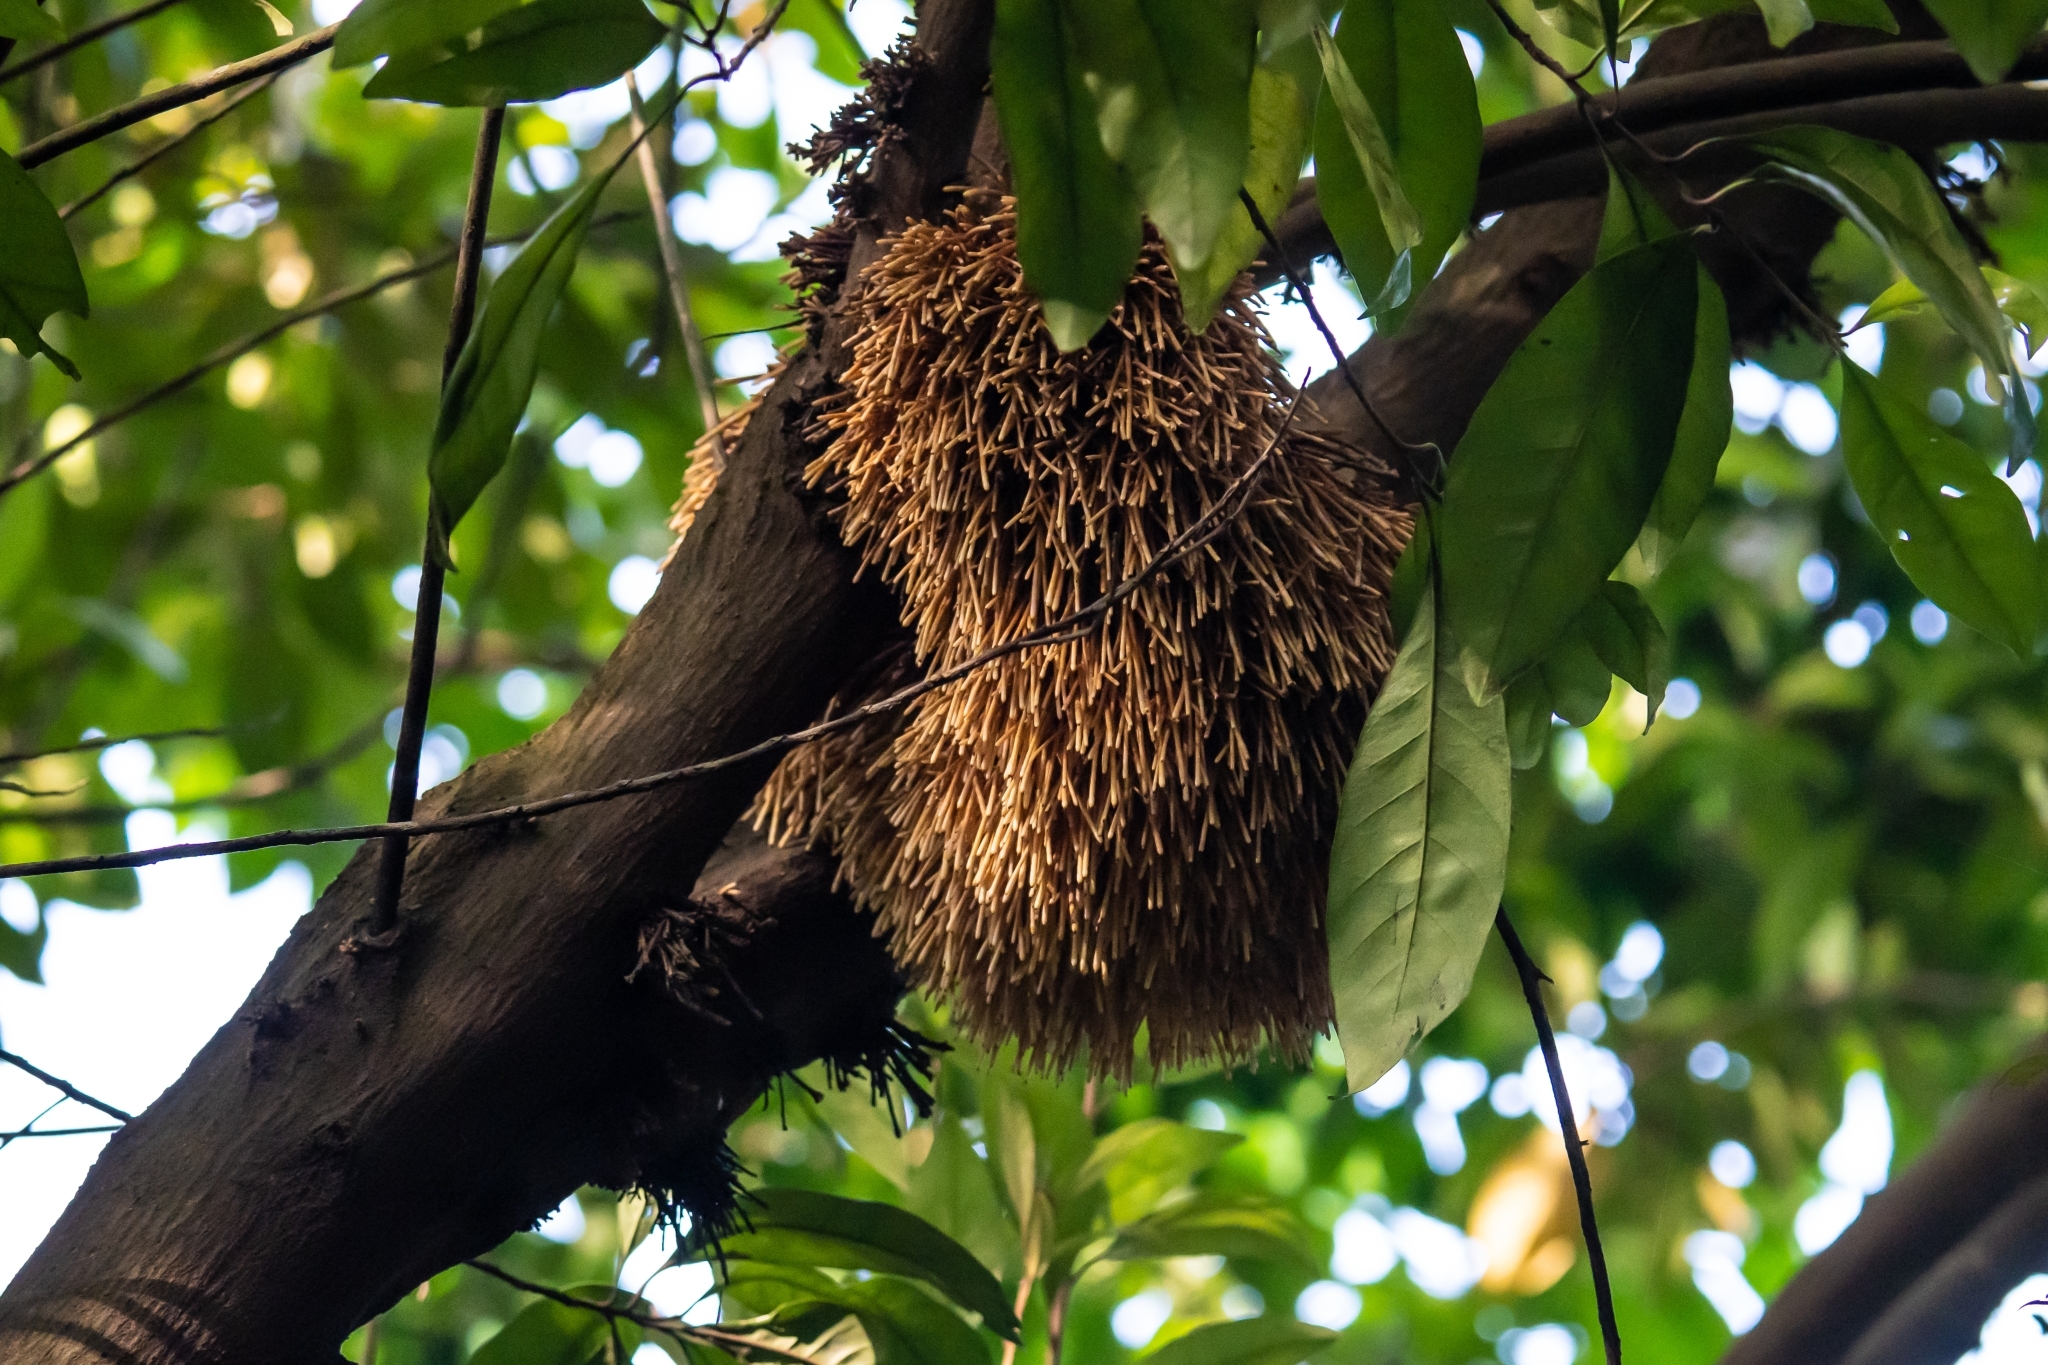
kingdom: Plantae
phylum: Tracheophyta
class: Magnoliopsida
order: Ericales
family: Sapotaceae
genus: Planchonella
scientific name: Planchonella obovata
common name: Black-ash
